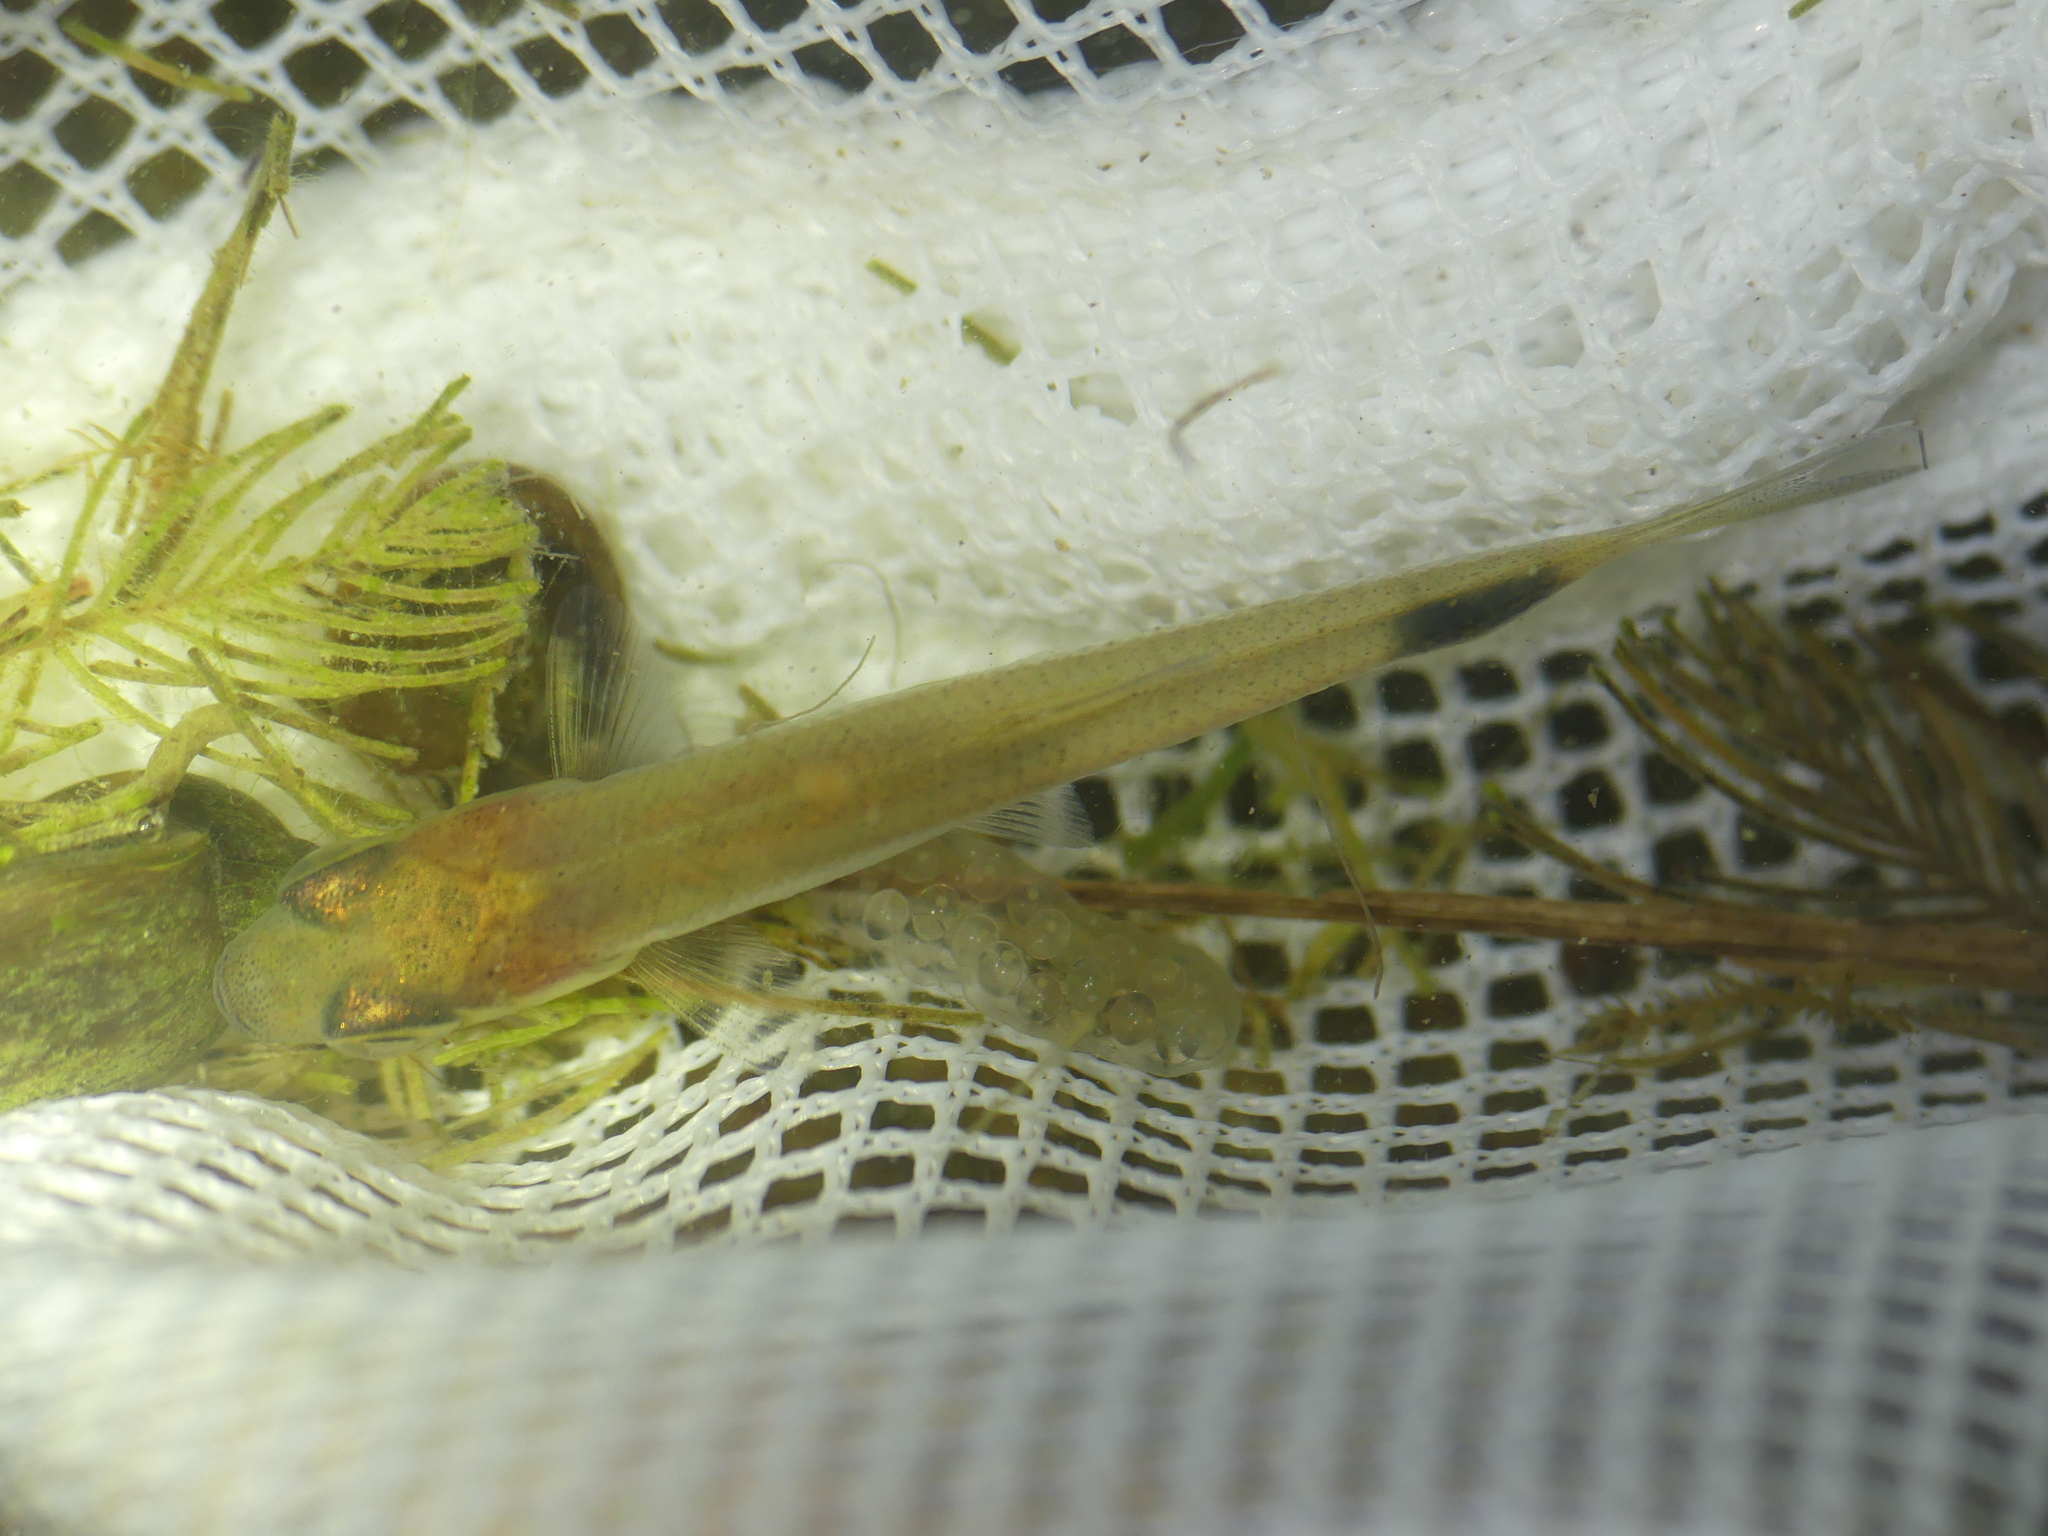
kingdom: Animalia
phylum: Chordata
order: Cypriniformes
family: Cyprinidae
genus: Leucaspius
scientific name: Leucaspius delineatus
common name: Sunbleak
